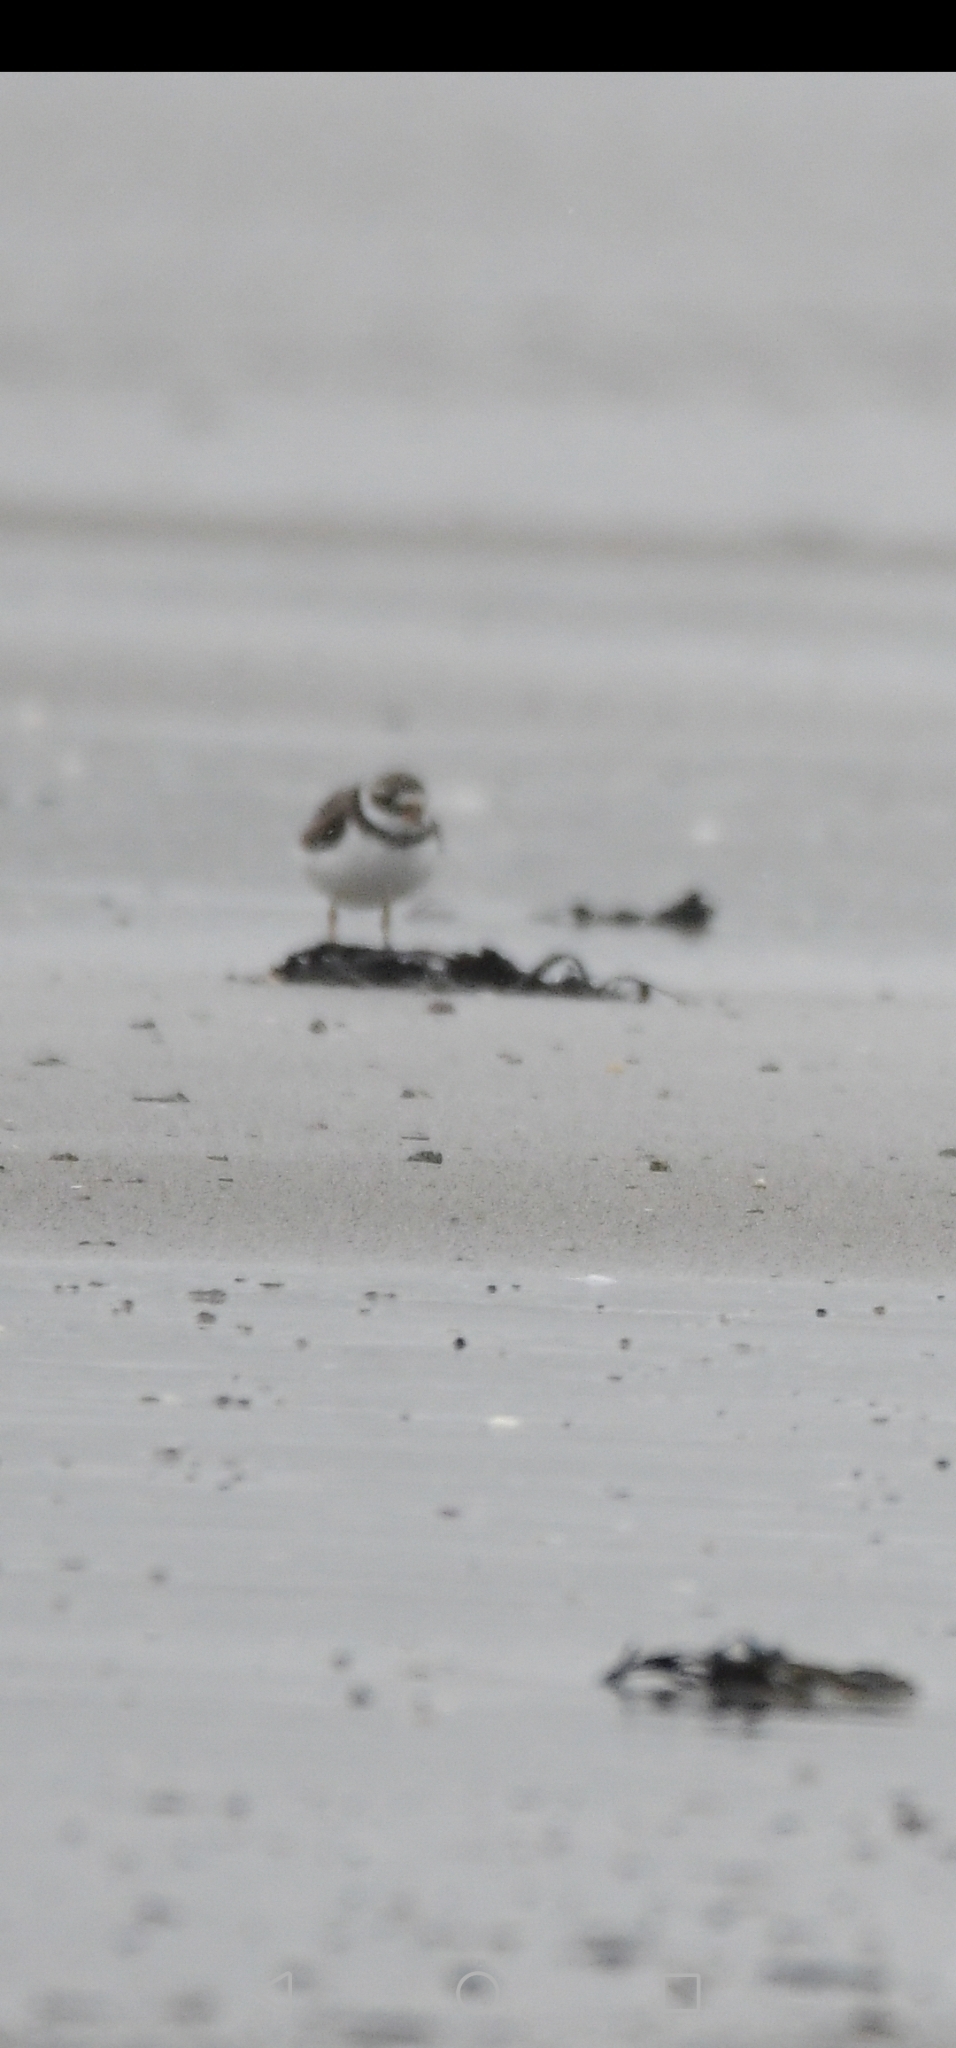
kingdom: Animalia
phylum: Chordata
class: Aves
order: Charadriiformes
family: Charadriidae
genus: Charadrius
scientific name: Charadrius hiaticula
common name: Common ringed plover
